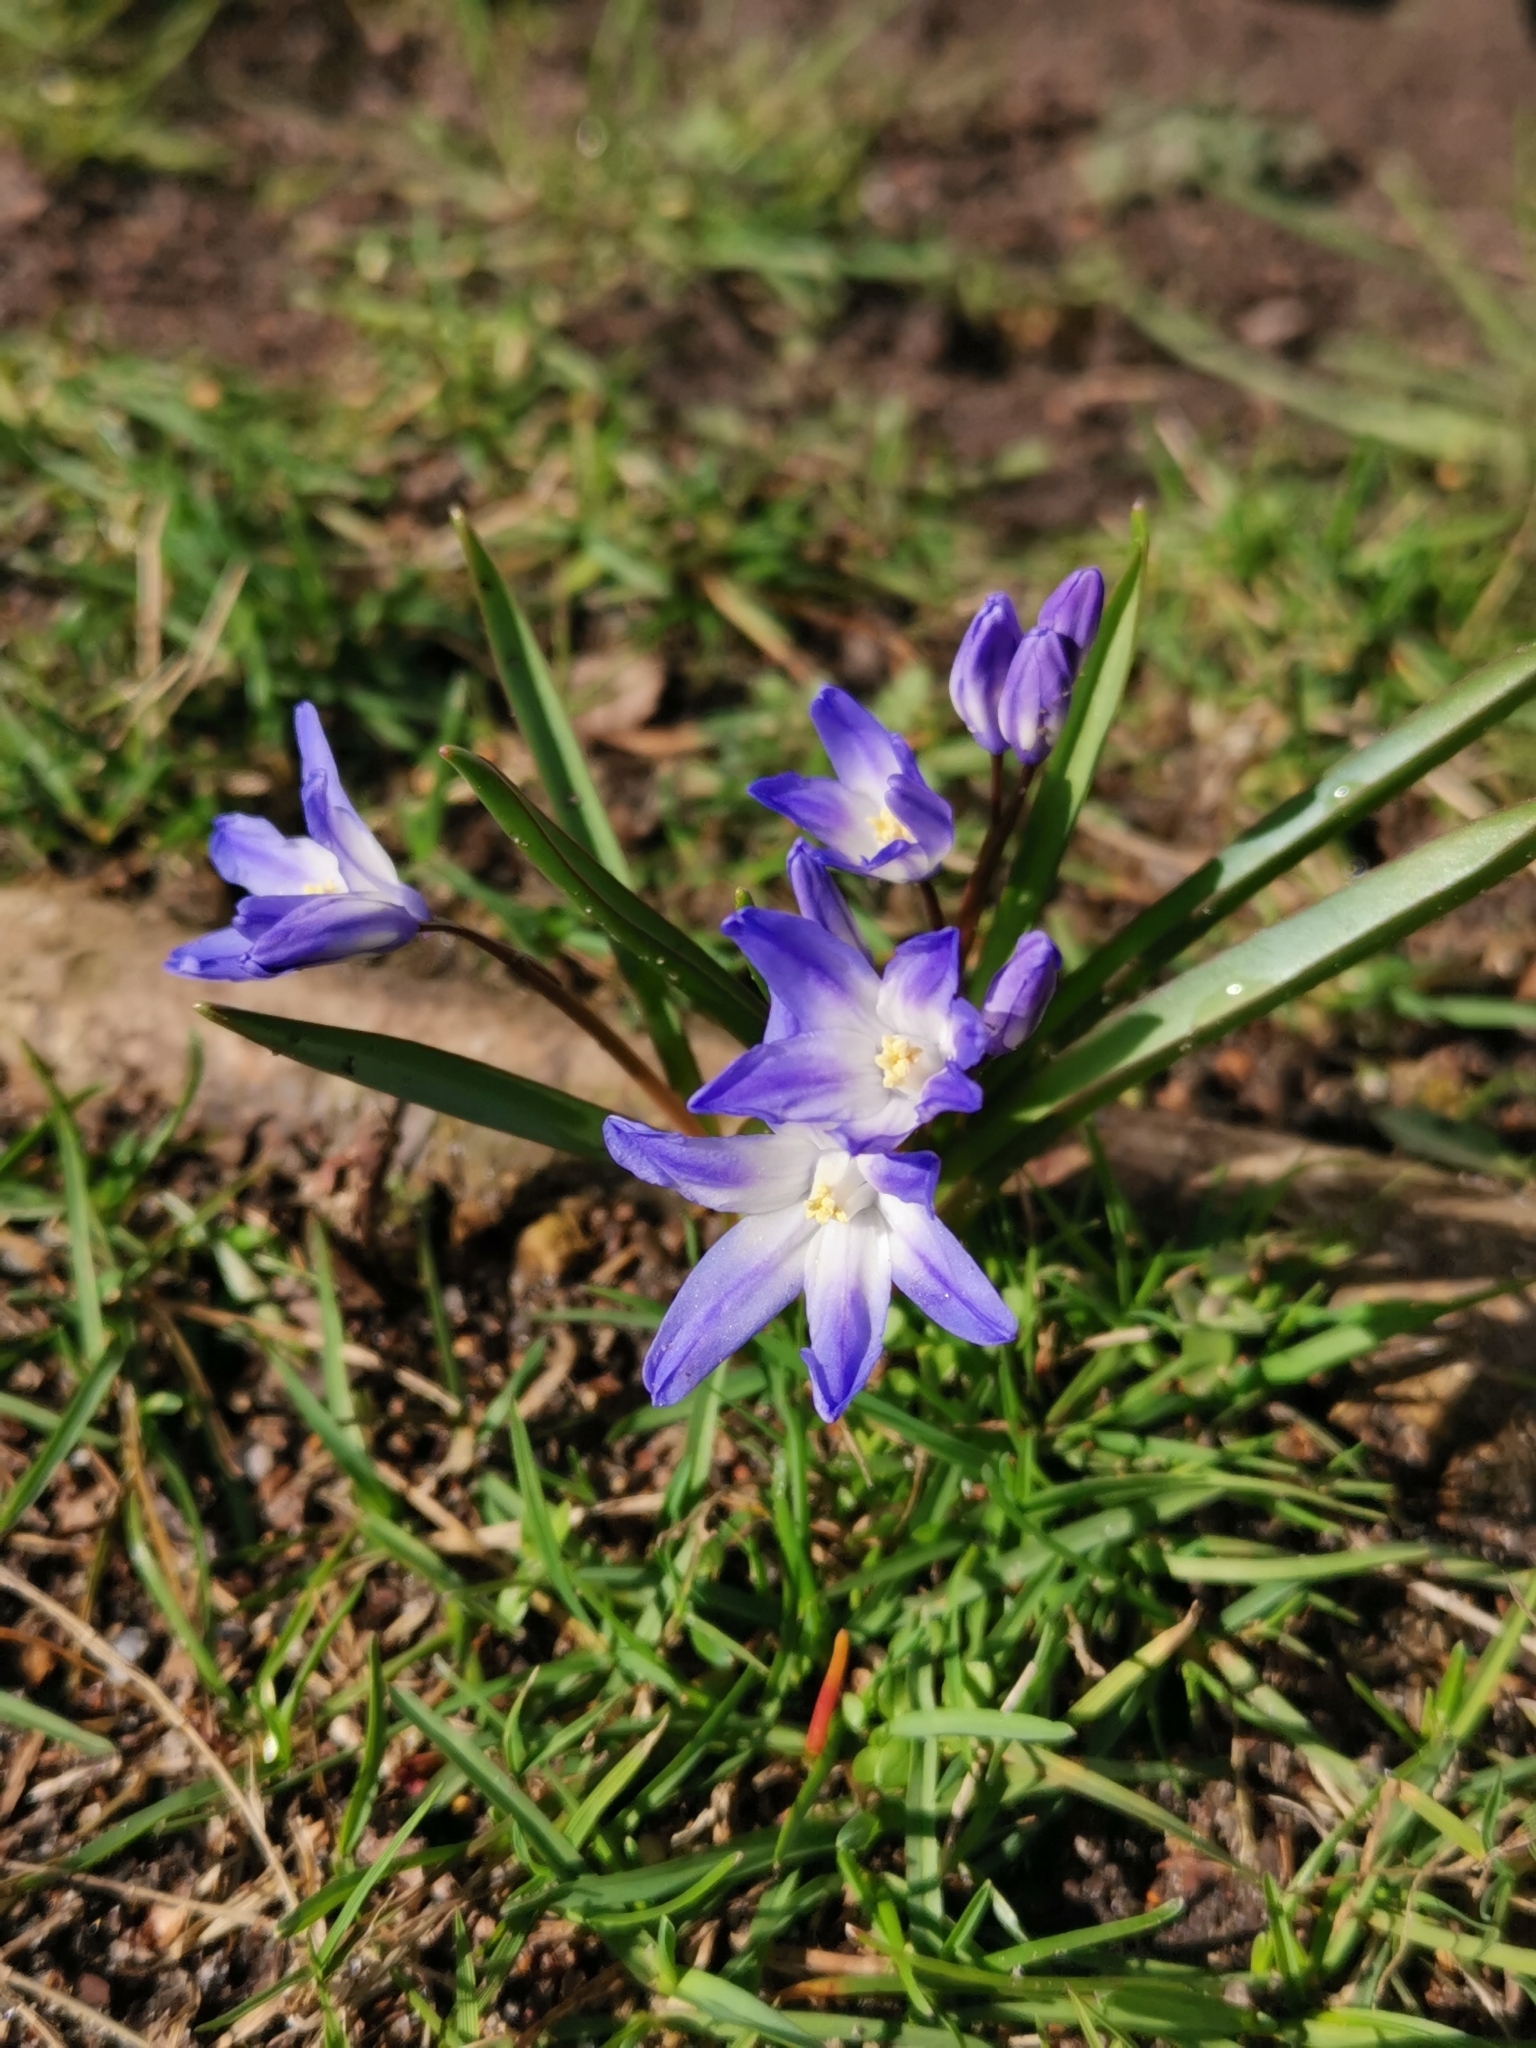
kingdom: Plantae
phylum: Tracheophyta
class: Liliopsida
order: Asparagales
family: Asparagaceae
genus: Scilla
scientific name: Scilla luciliae
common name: Boissier's glory-of-the-snow
